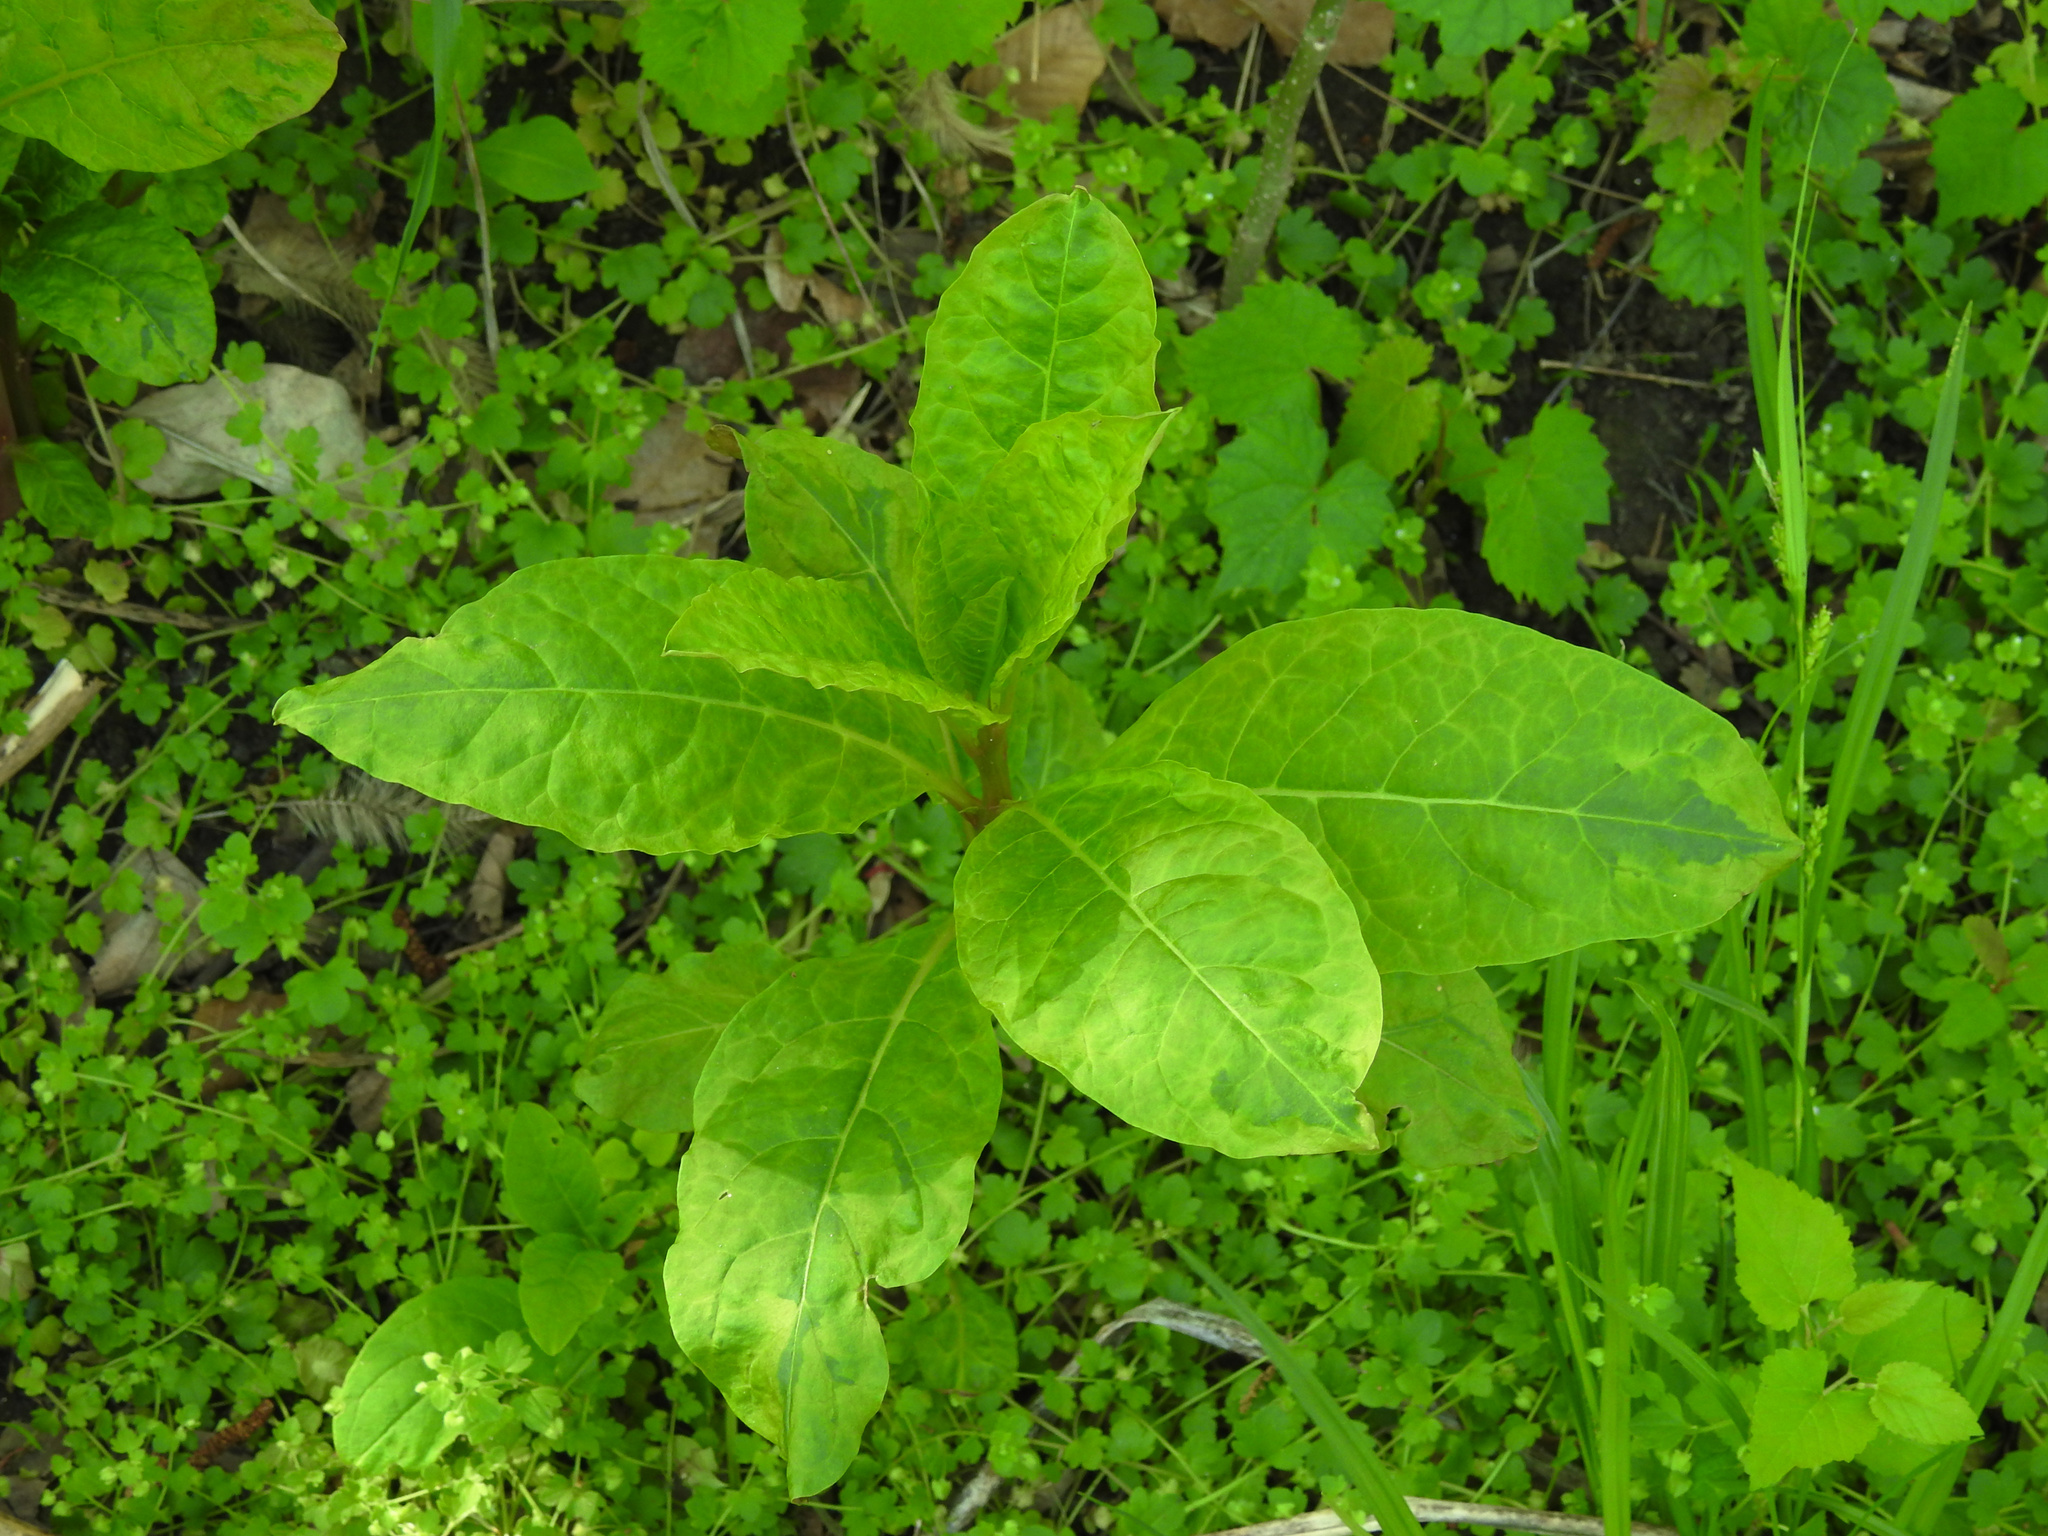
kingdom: Plantae
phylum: Tracheophyta
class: Magnoliopsida
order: Caryophyllales
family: Phytolaccaceae
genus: Phytolacca
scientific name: Phytolacca americana
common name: American pokeweed
